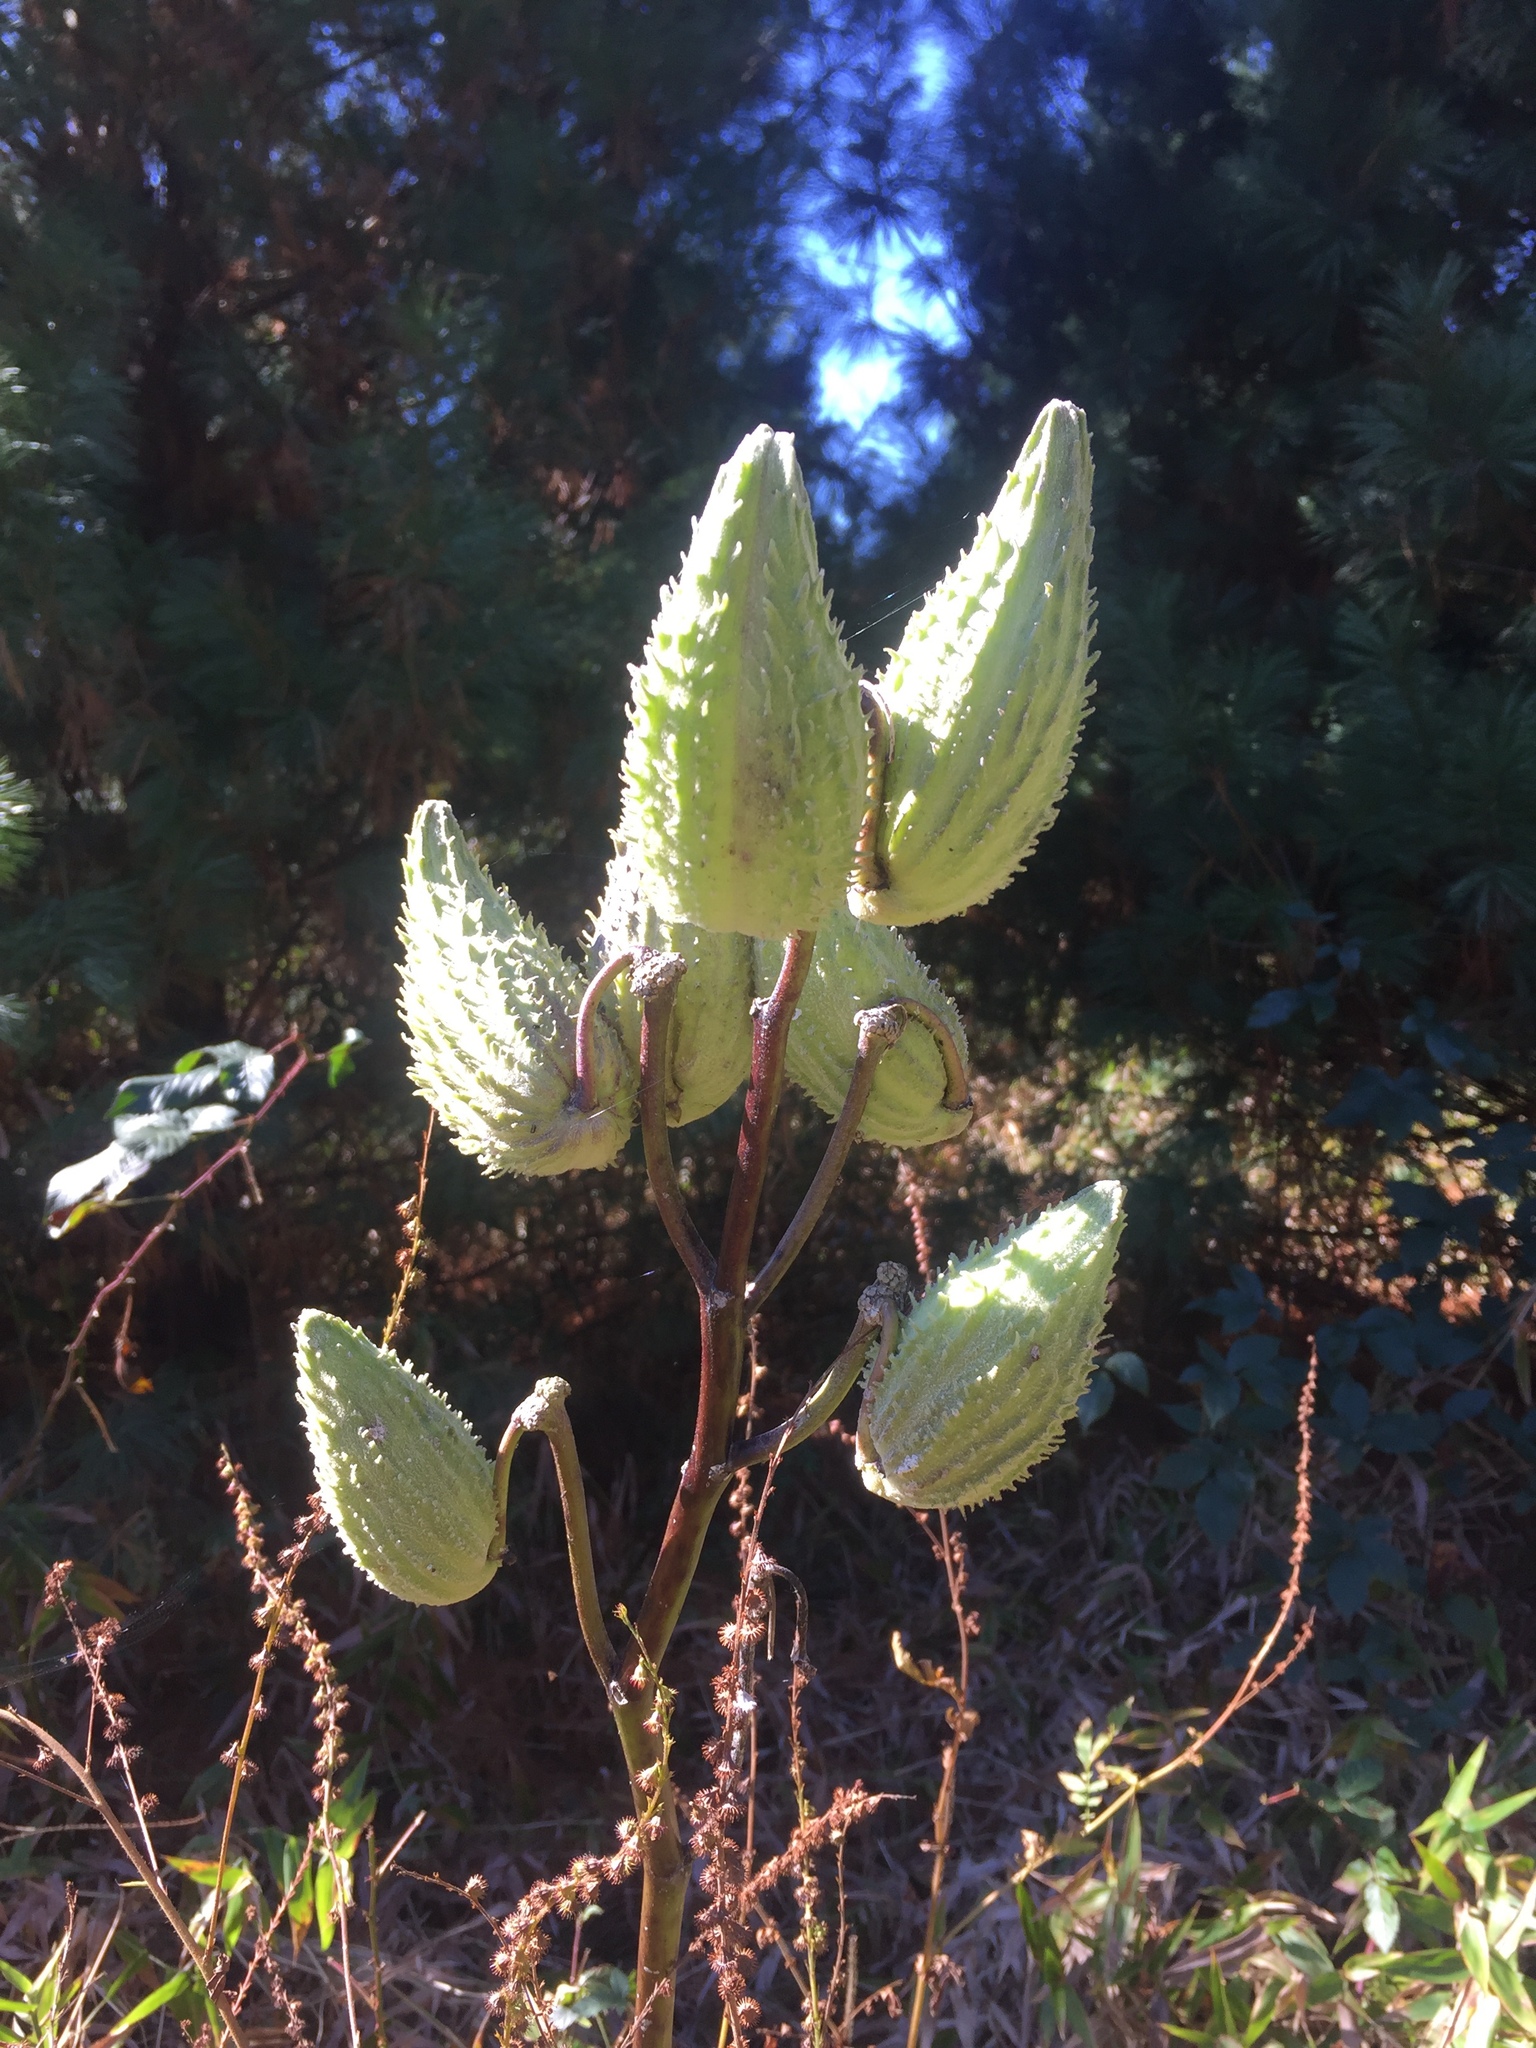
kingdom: Plantae
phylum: Tracheophyta
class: Magnoliopsida
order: Gentianales
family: Apocynaceae
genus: Asclepias
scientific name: Asclepias syriaca
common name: Common milkweed
